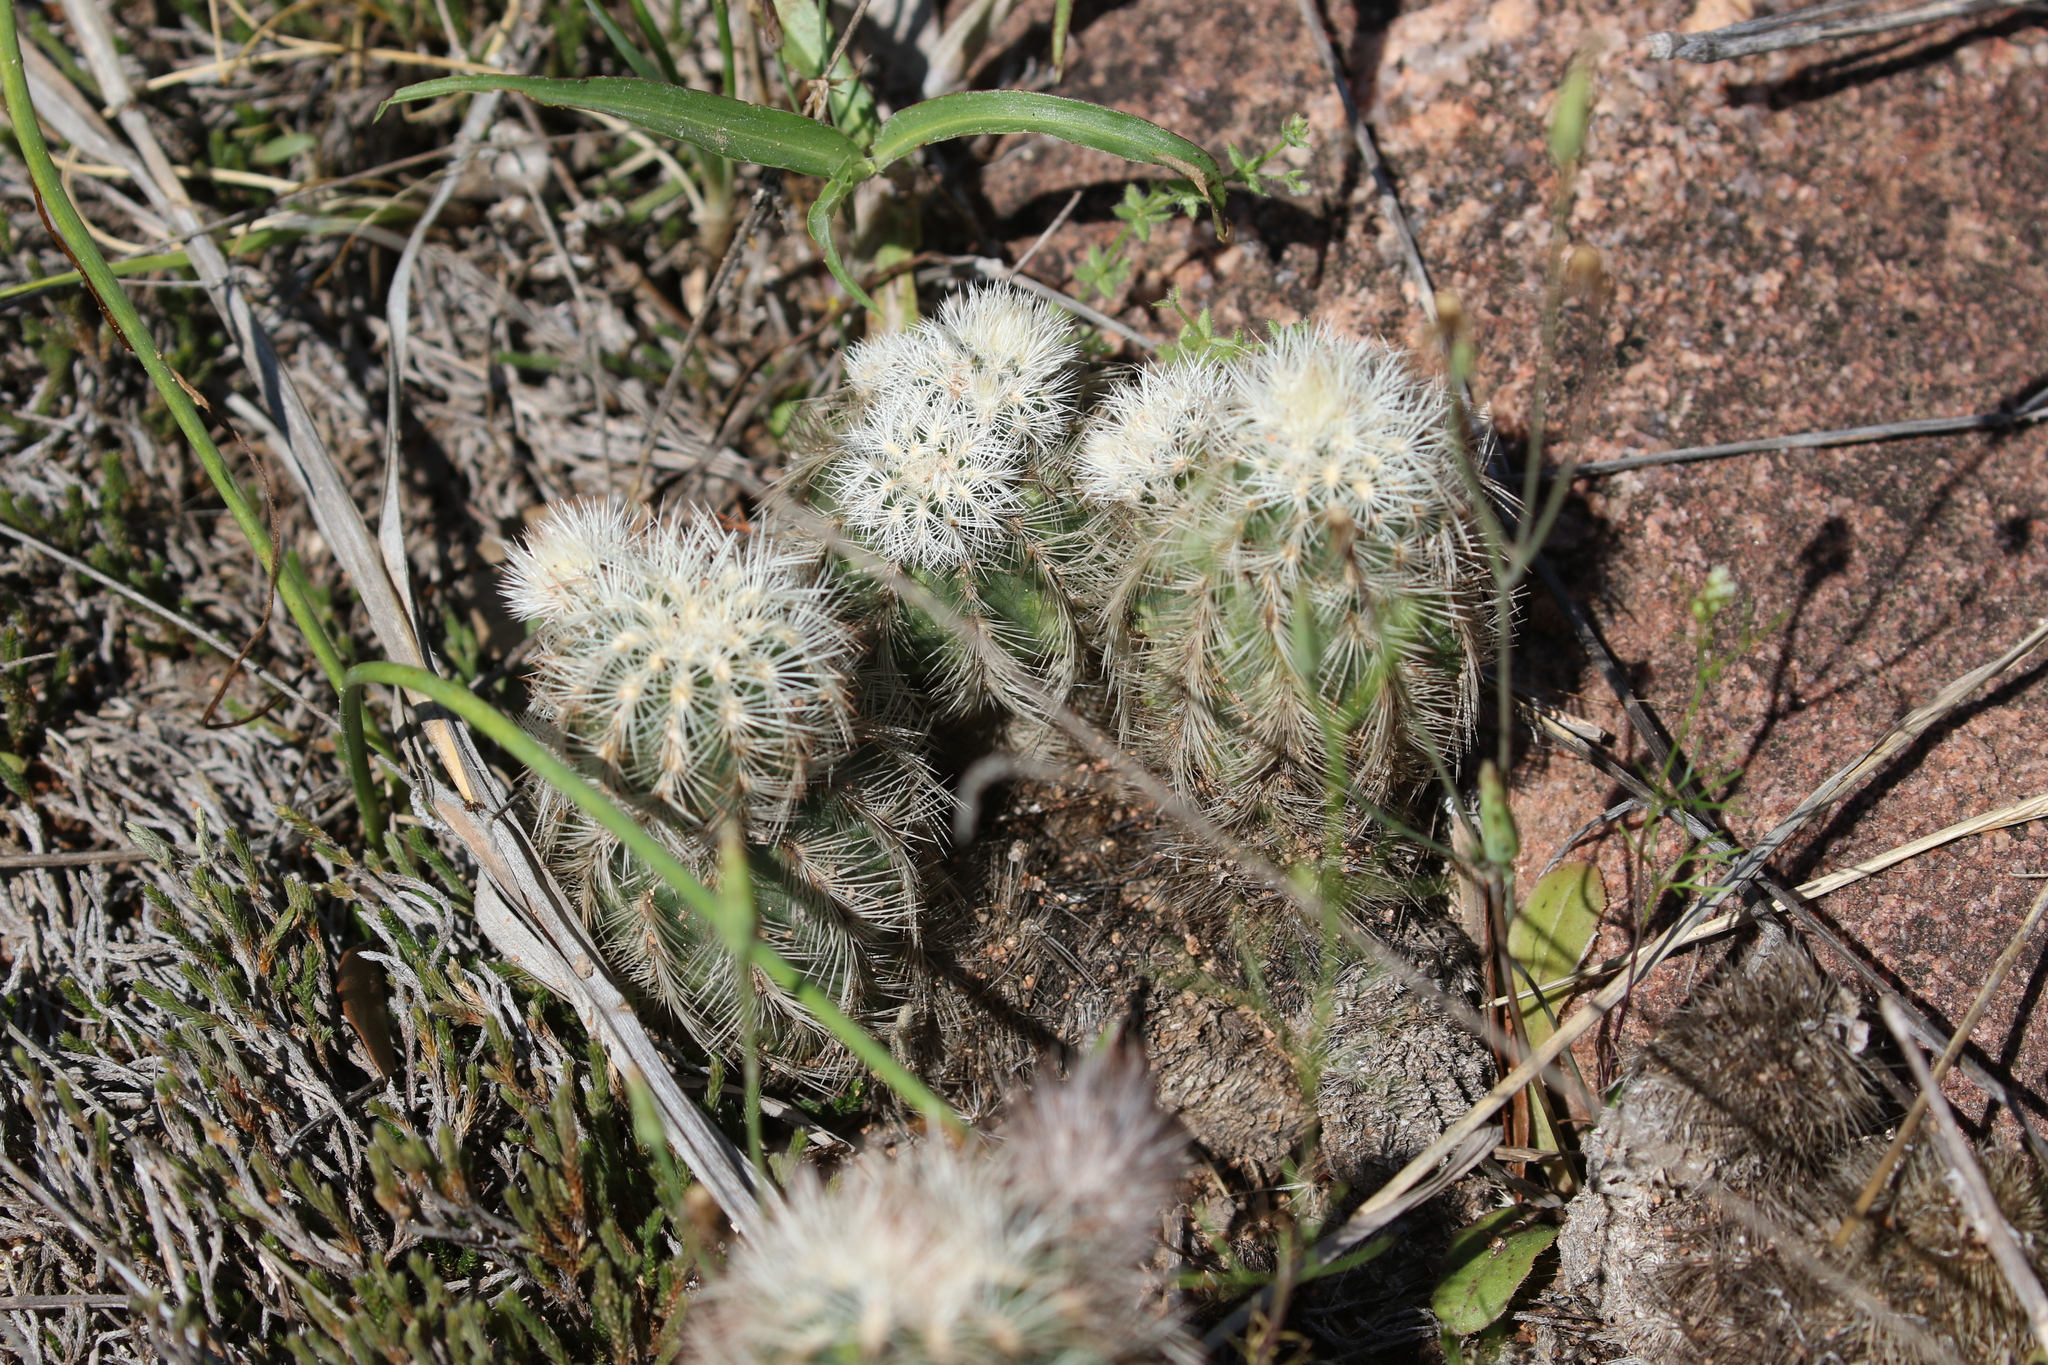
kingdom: Plantae
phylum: Tracheophyta
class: Magnoliopsida
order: Caryophyllales
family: Cactaceae
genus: Echinocereus
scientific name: Echinocereus reichenbachii
